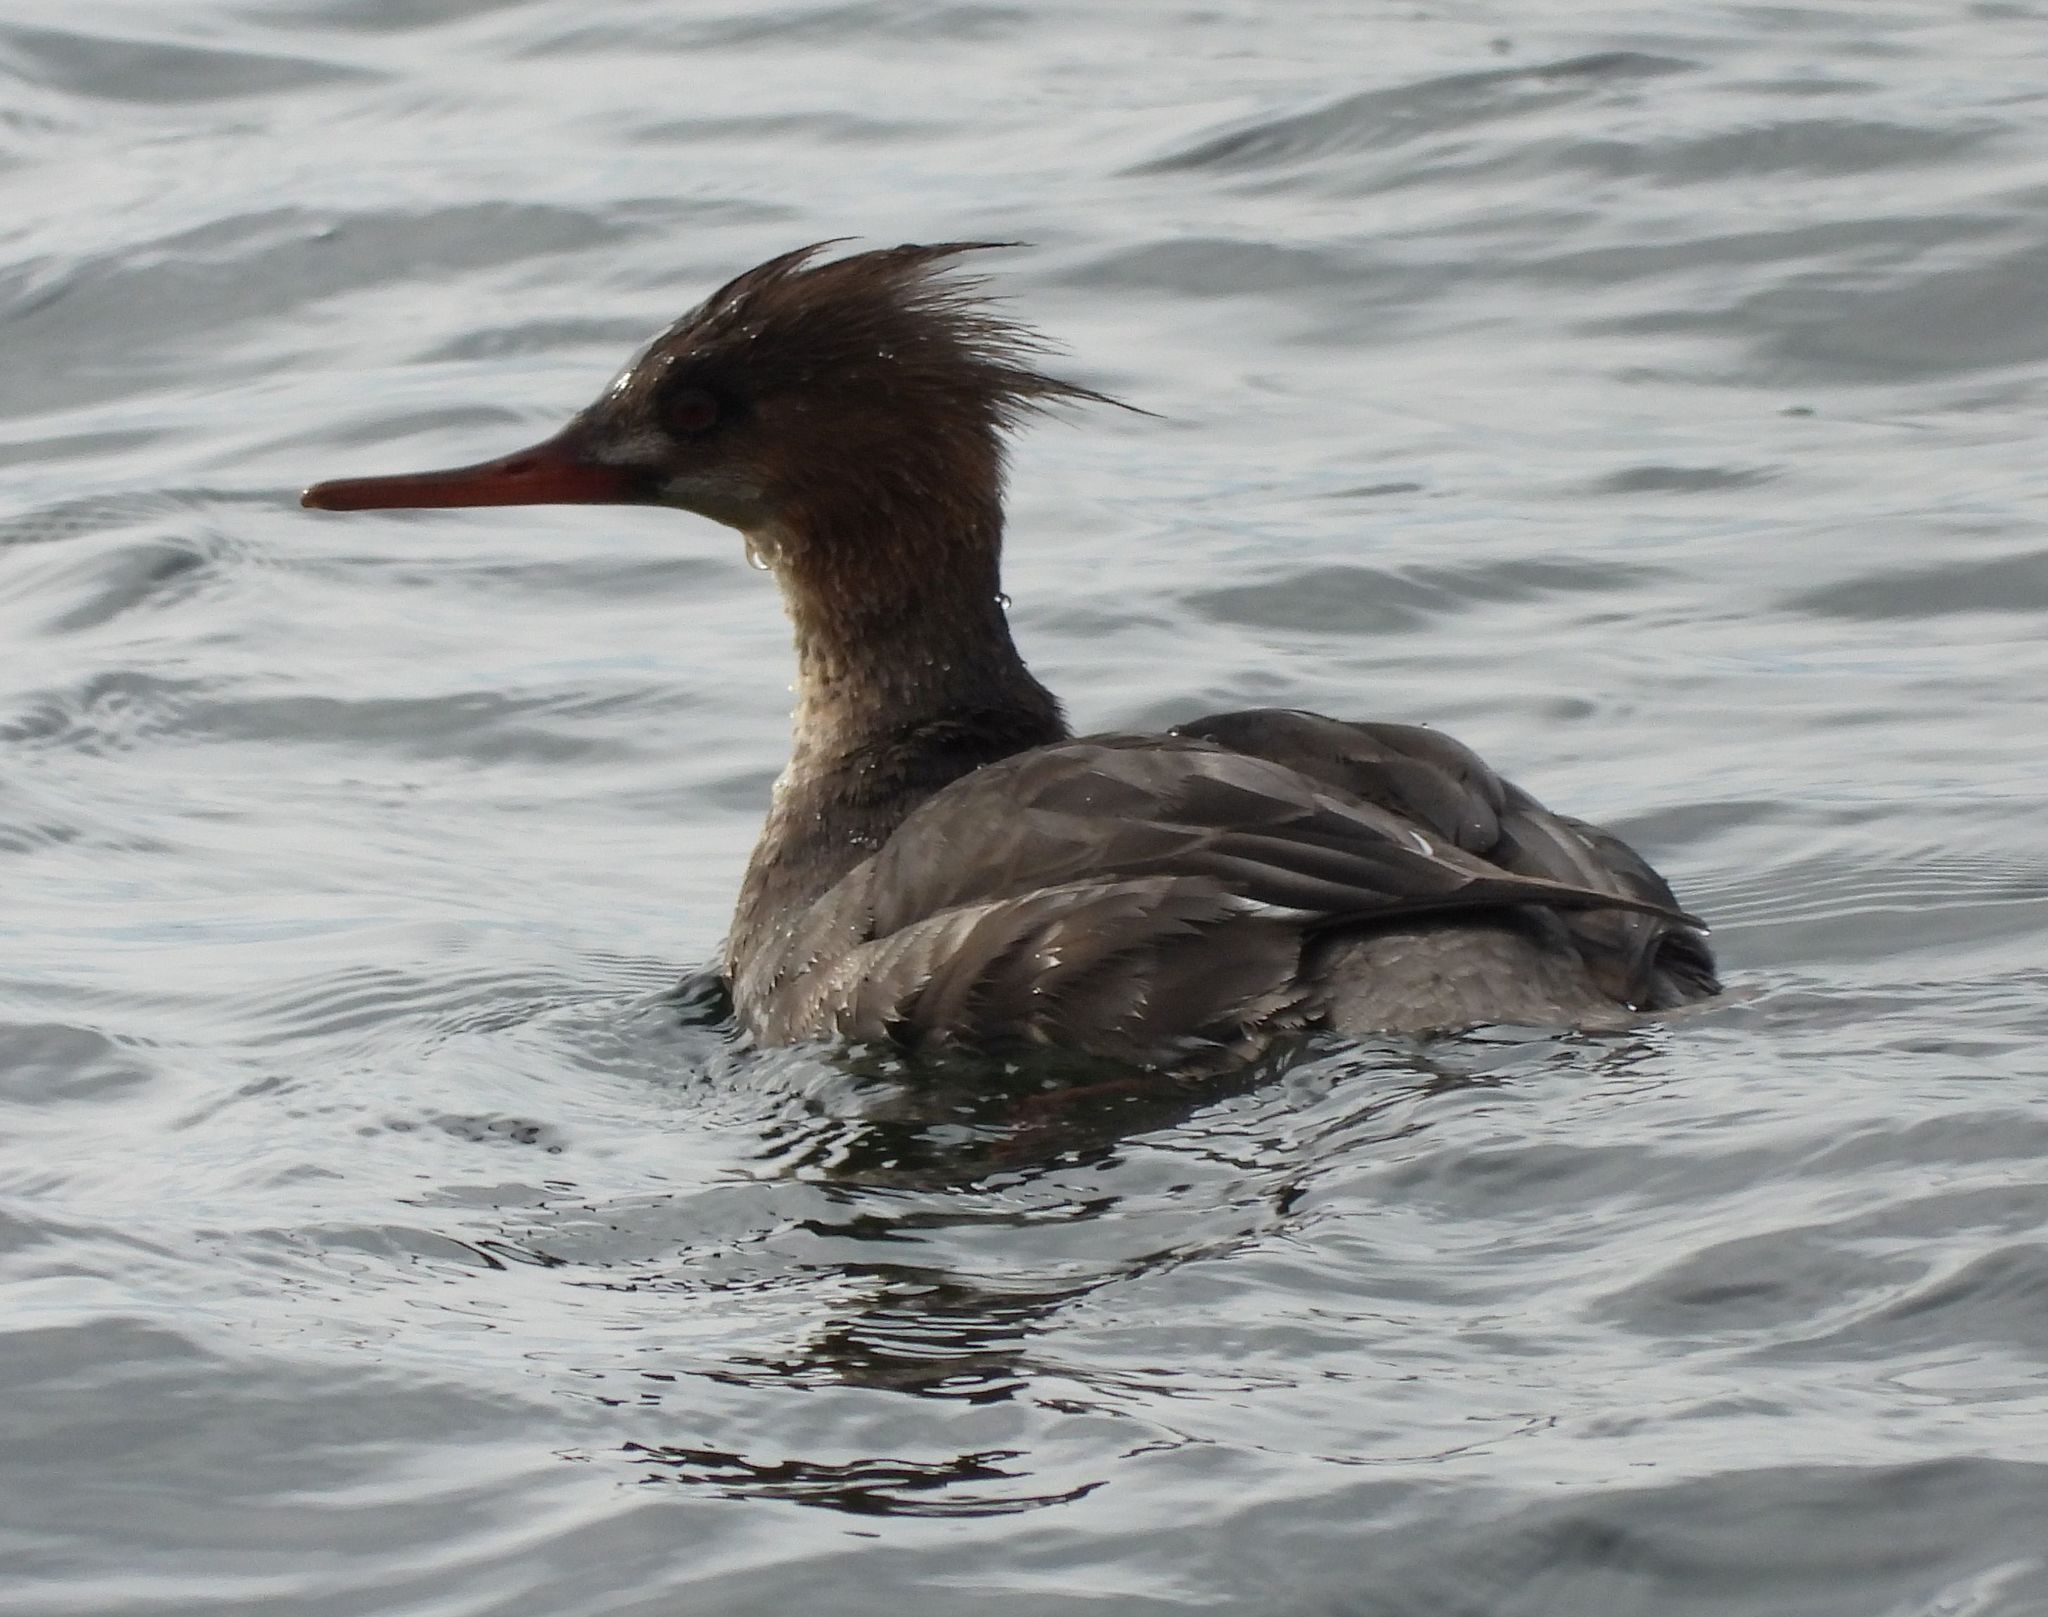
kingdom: Animalia
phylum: Chordata
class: Aves
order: Anseriformes
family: Anatidae
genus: Mergus
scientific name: Mergus serrator
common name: Red-breasted merganser
